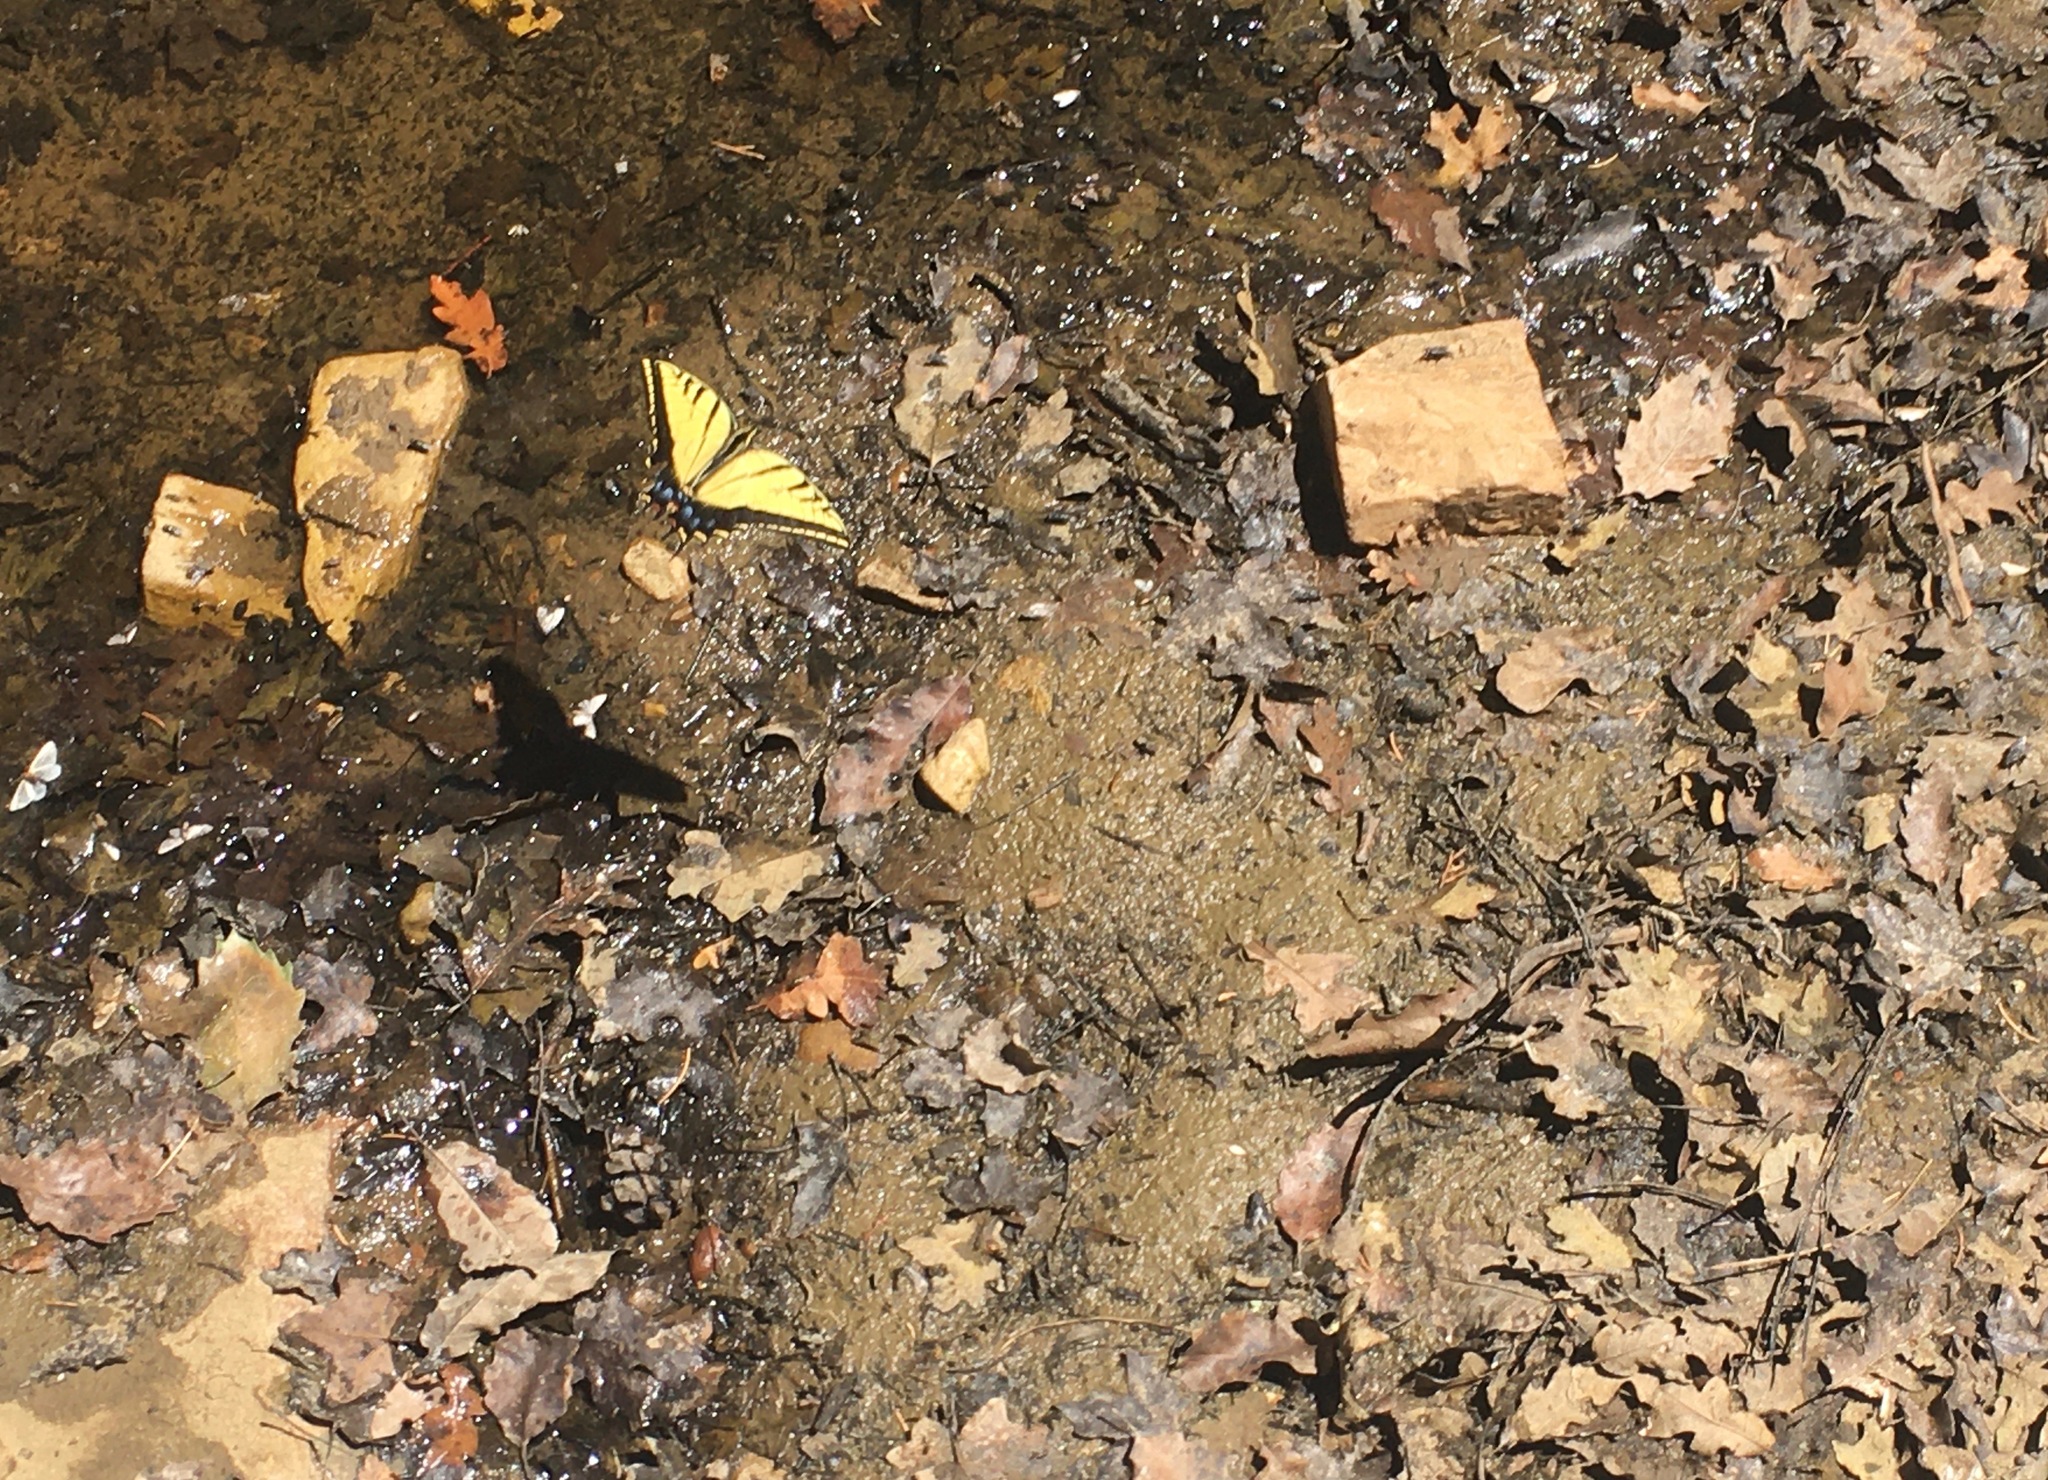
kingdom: Animalia
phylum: Arthropoda
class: Insecta
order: Lepidoptera
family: Papilionidae
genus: Papilio
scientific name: Papilio multicaudata
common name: Two-tailed tiger swallowtail
